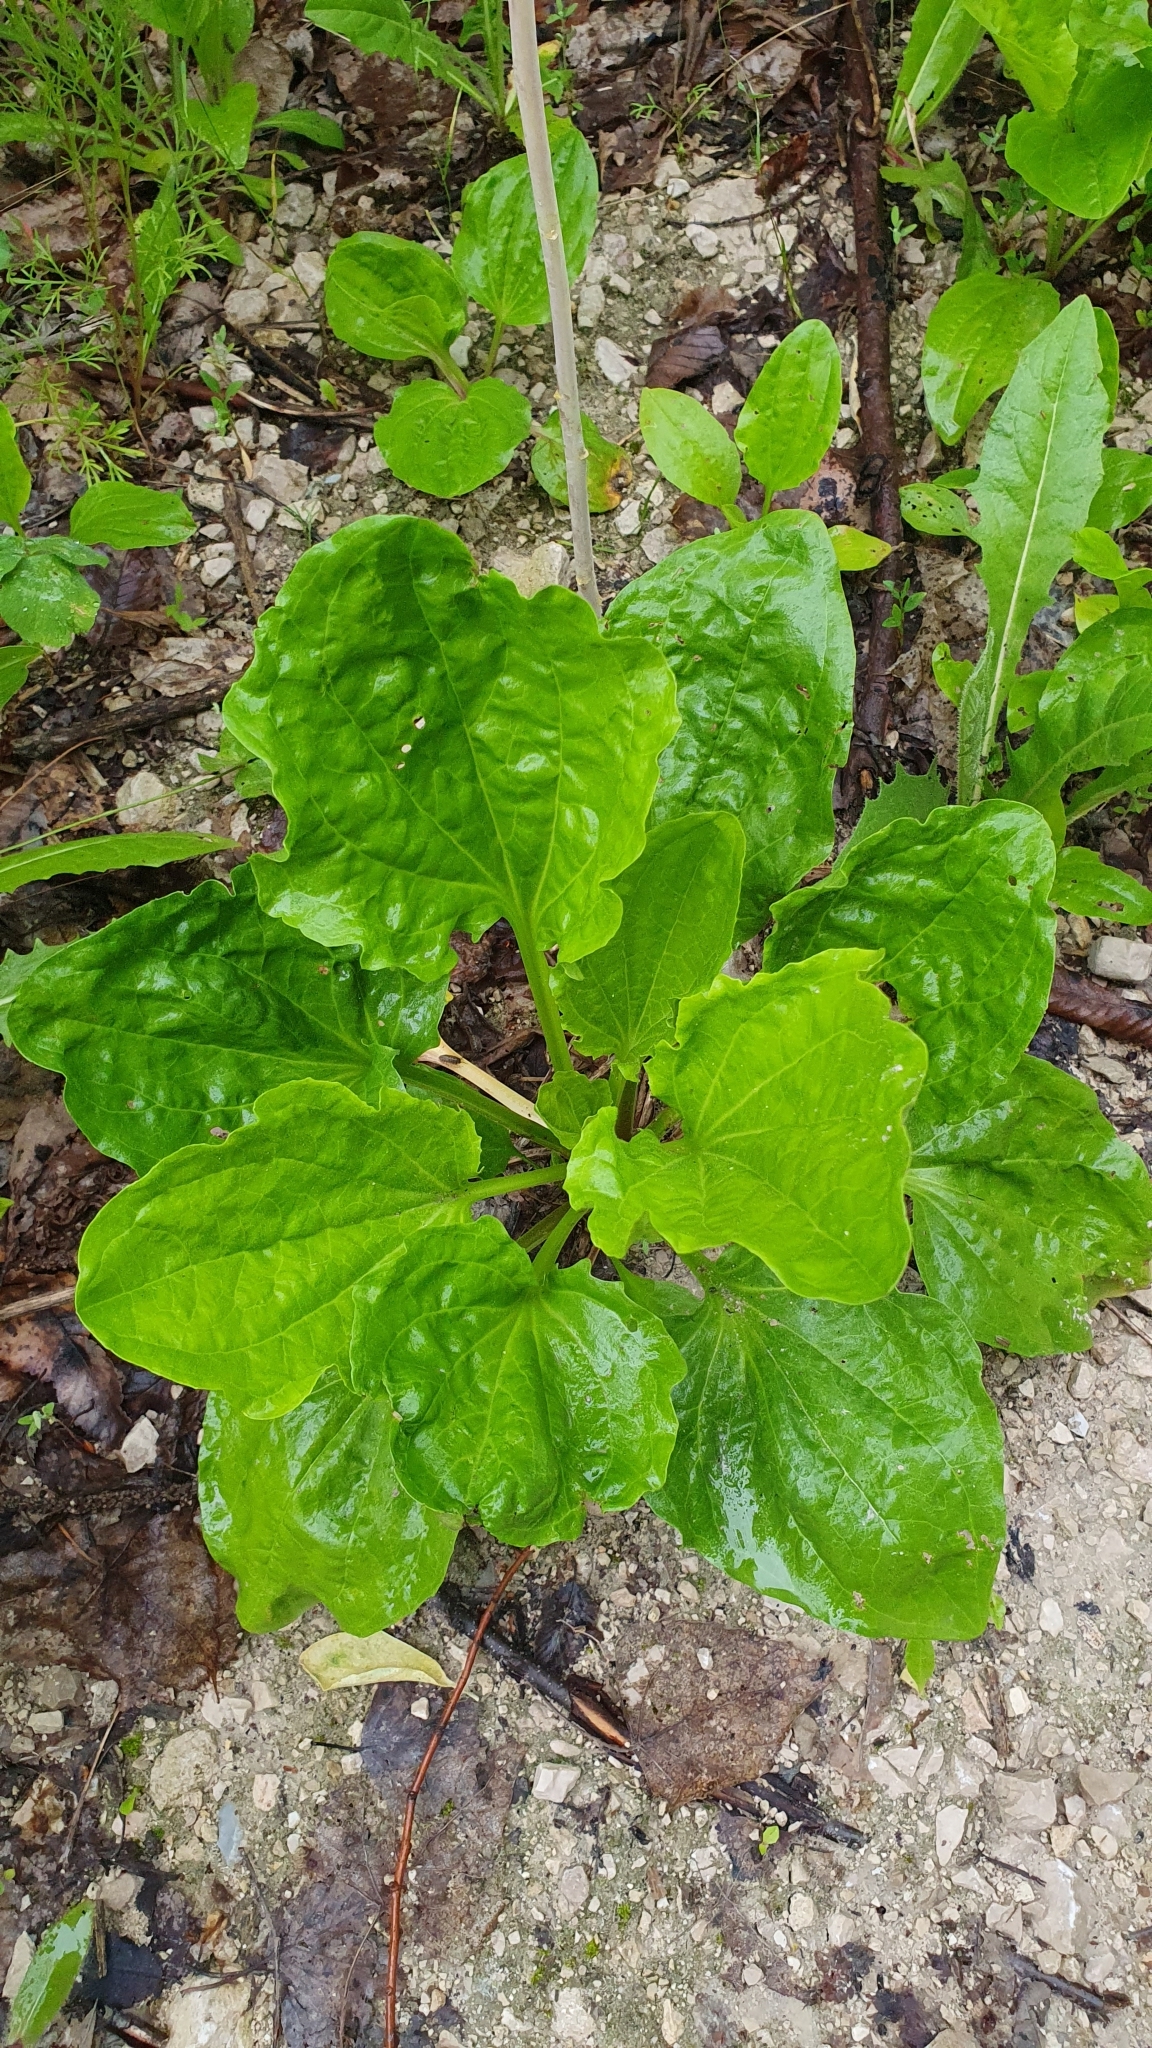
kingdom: Plantae
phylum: Tracheophyta
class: Magnoliopsida
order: Lamiales
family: Plantaginaceae
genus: Plantago
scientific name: Plantago major
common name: Common plantain
